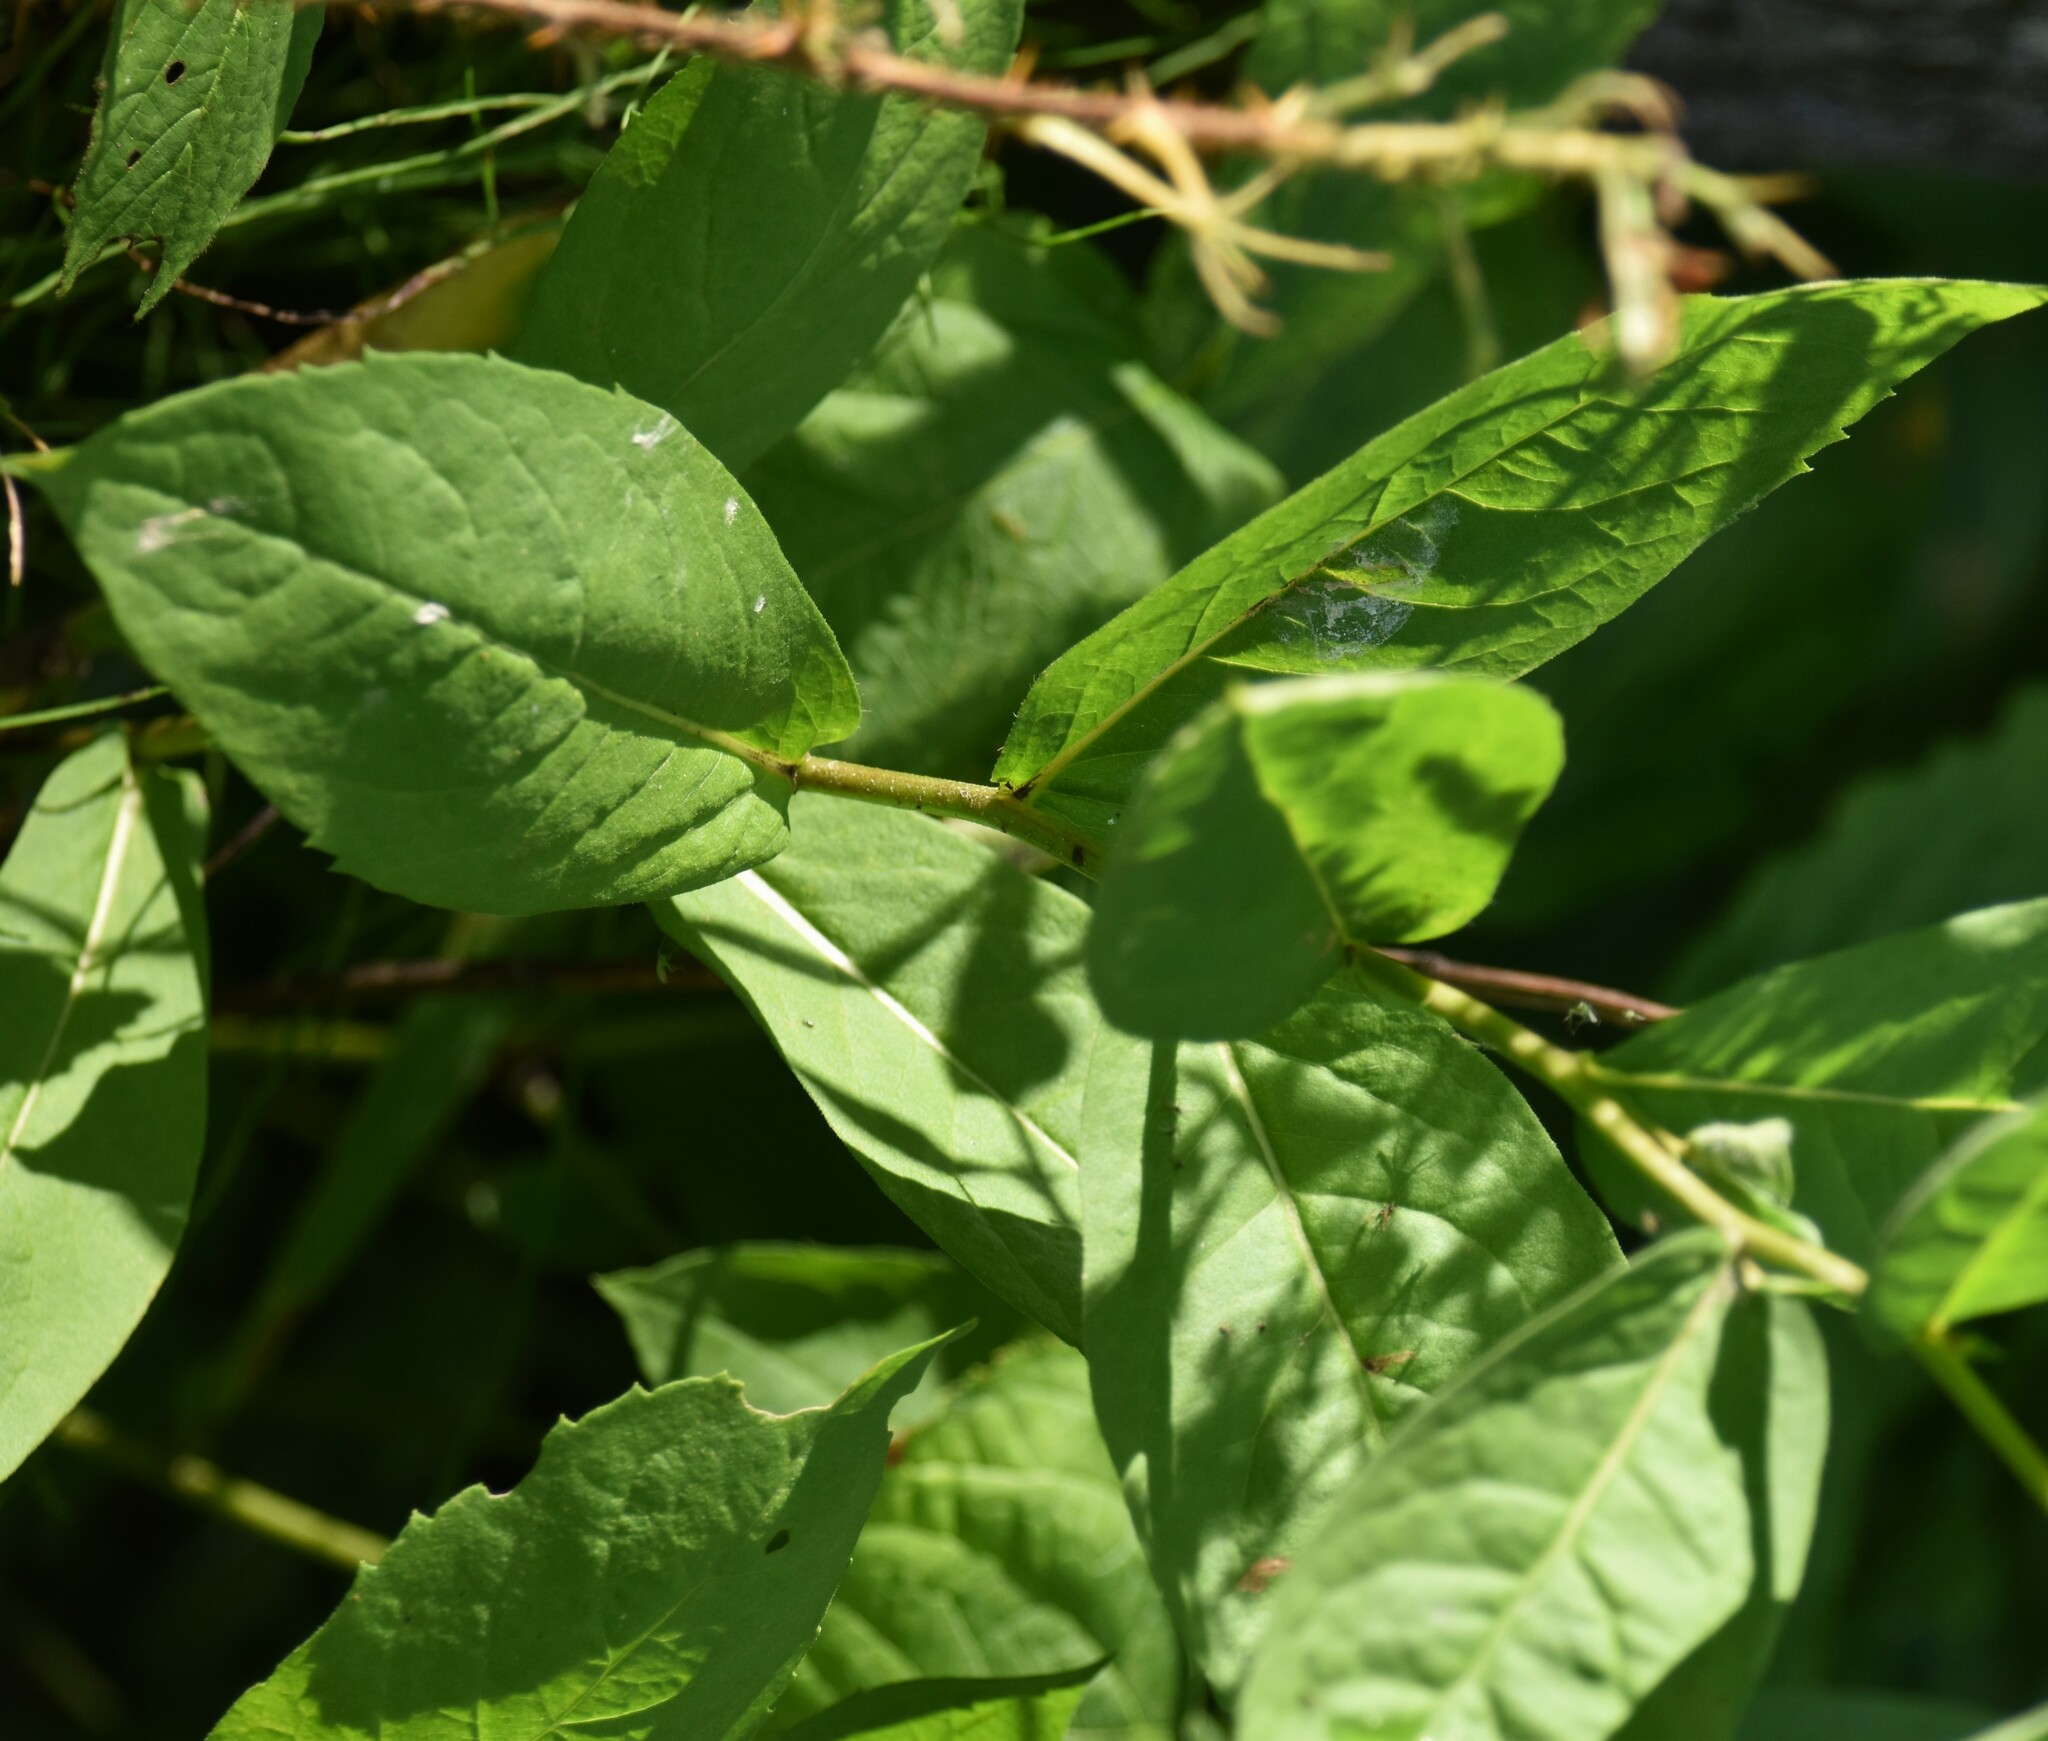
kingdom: Plantae
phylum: Tracheophyta
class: Magnoliopsida
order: Asterales
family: Asteraceae
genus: Eurybia
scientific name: Eurybia conspicua
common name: Showy aster
